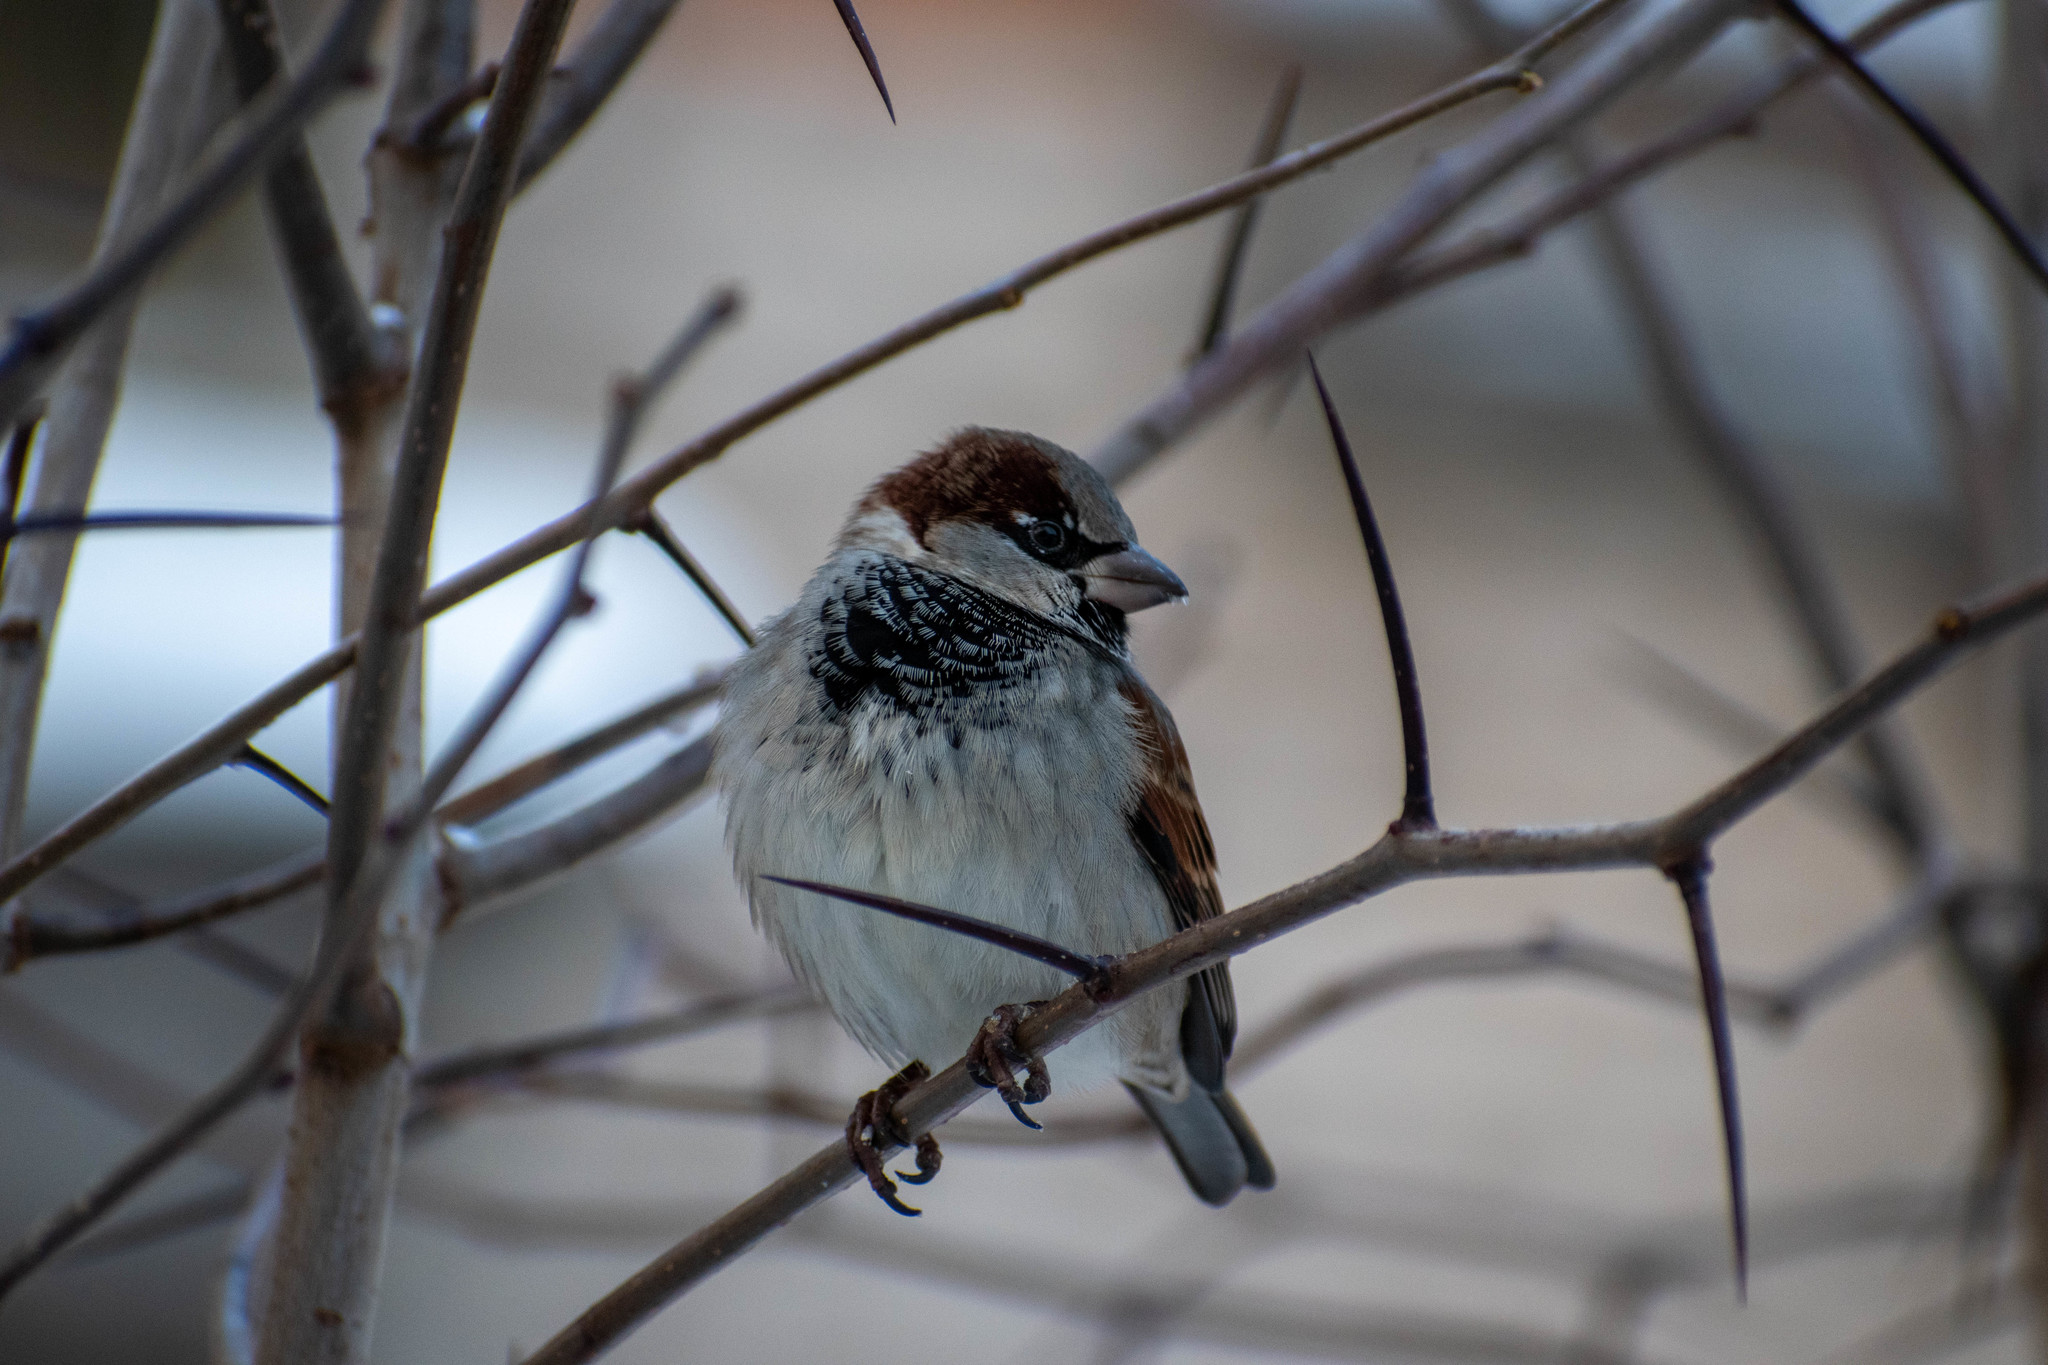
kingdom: Animalia
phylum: Chordata
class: Aves
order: Passeriformes
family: Passeridae
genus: Passer
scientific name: Passer domesticus
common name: House sparrow
